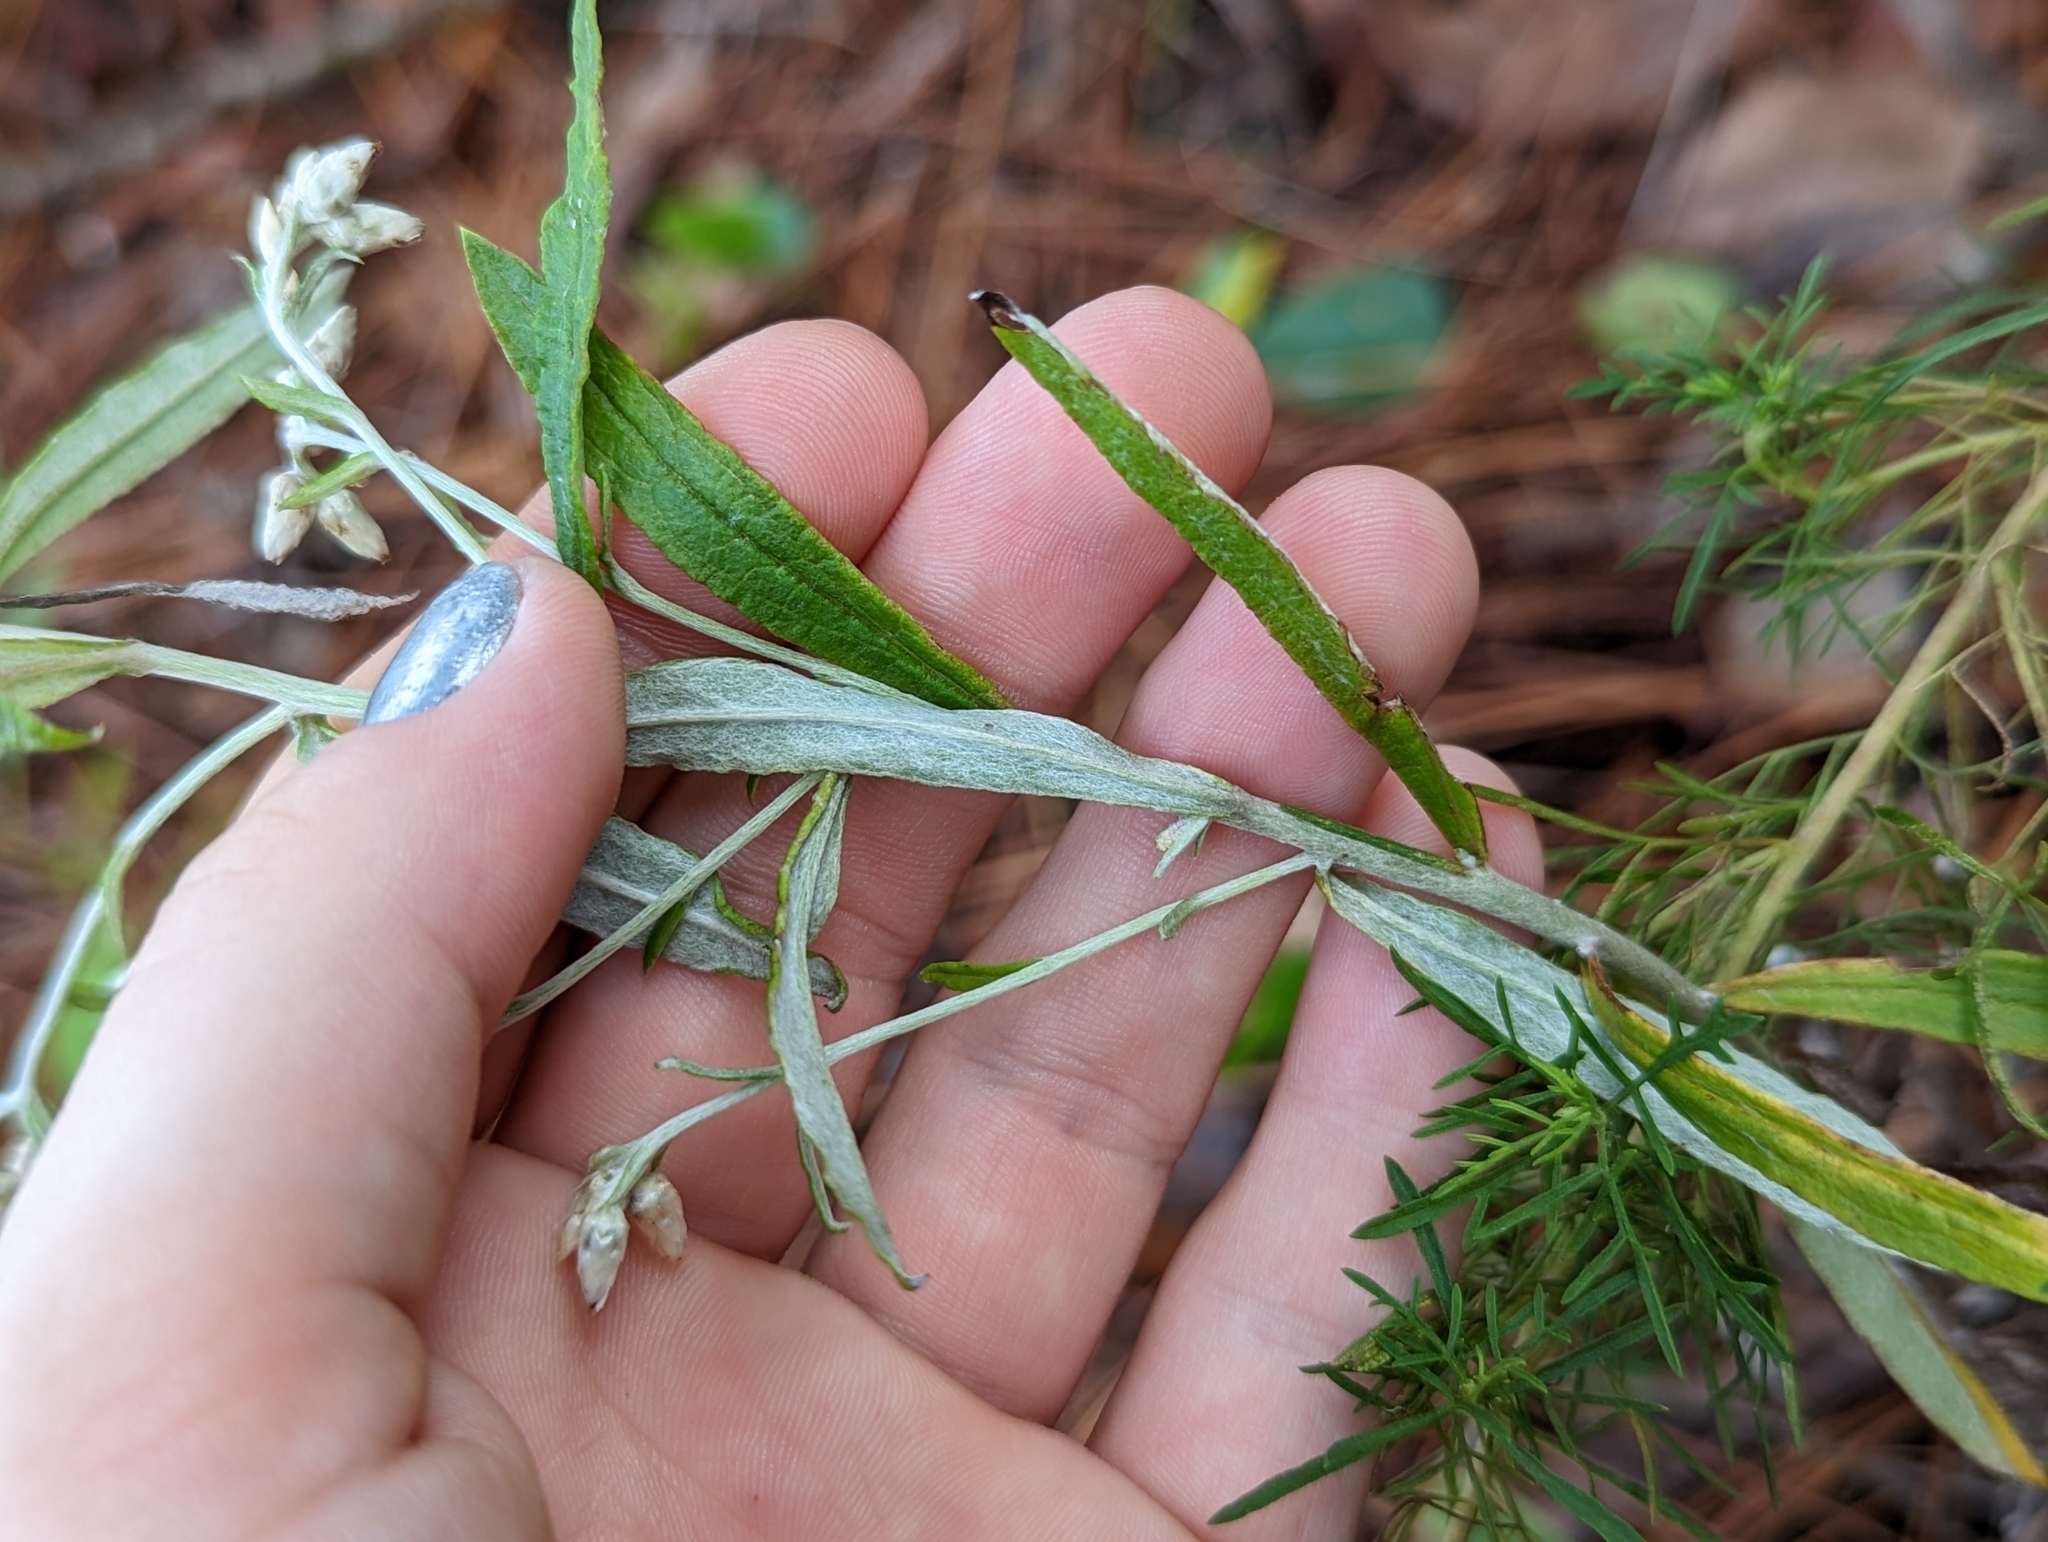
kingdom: Plantae
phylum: Tracheophyta
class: Magnoliopsida
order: Asterales
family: Asteraceae
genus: Pseudognaphalium
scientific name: Pseudognaphalium obtusifolium
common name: Eastern rabbit-tobacco
